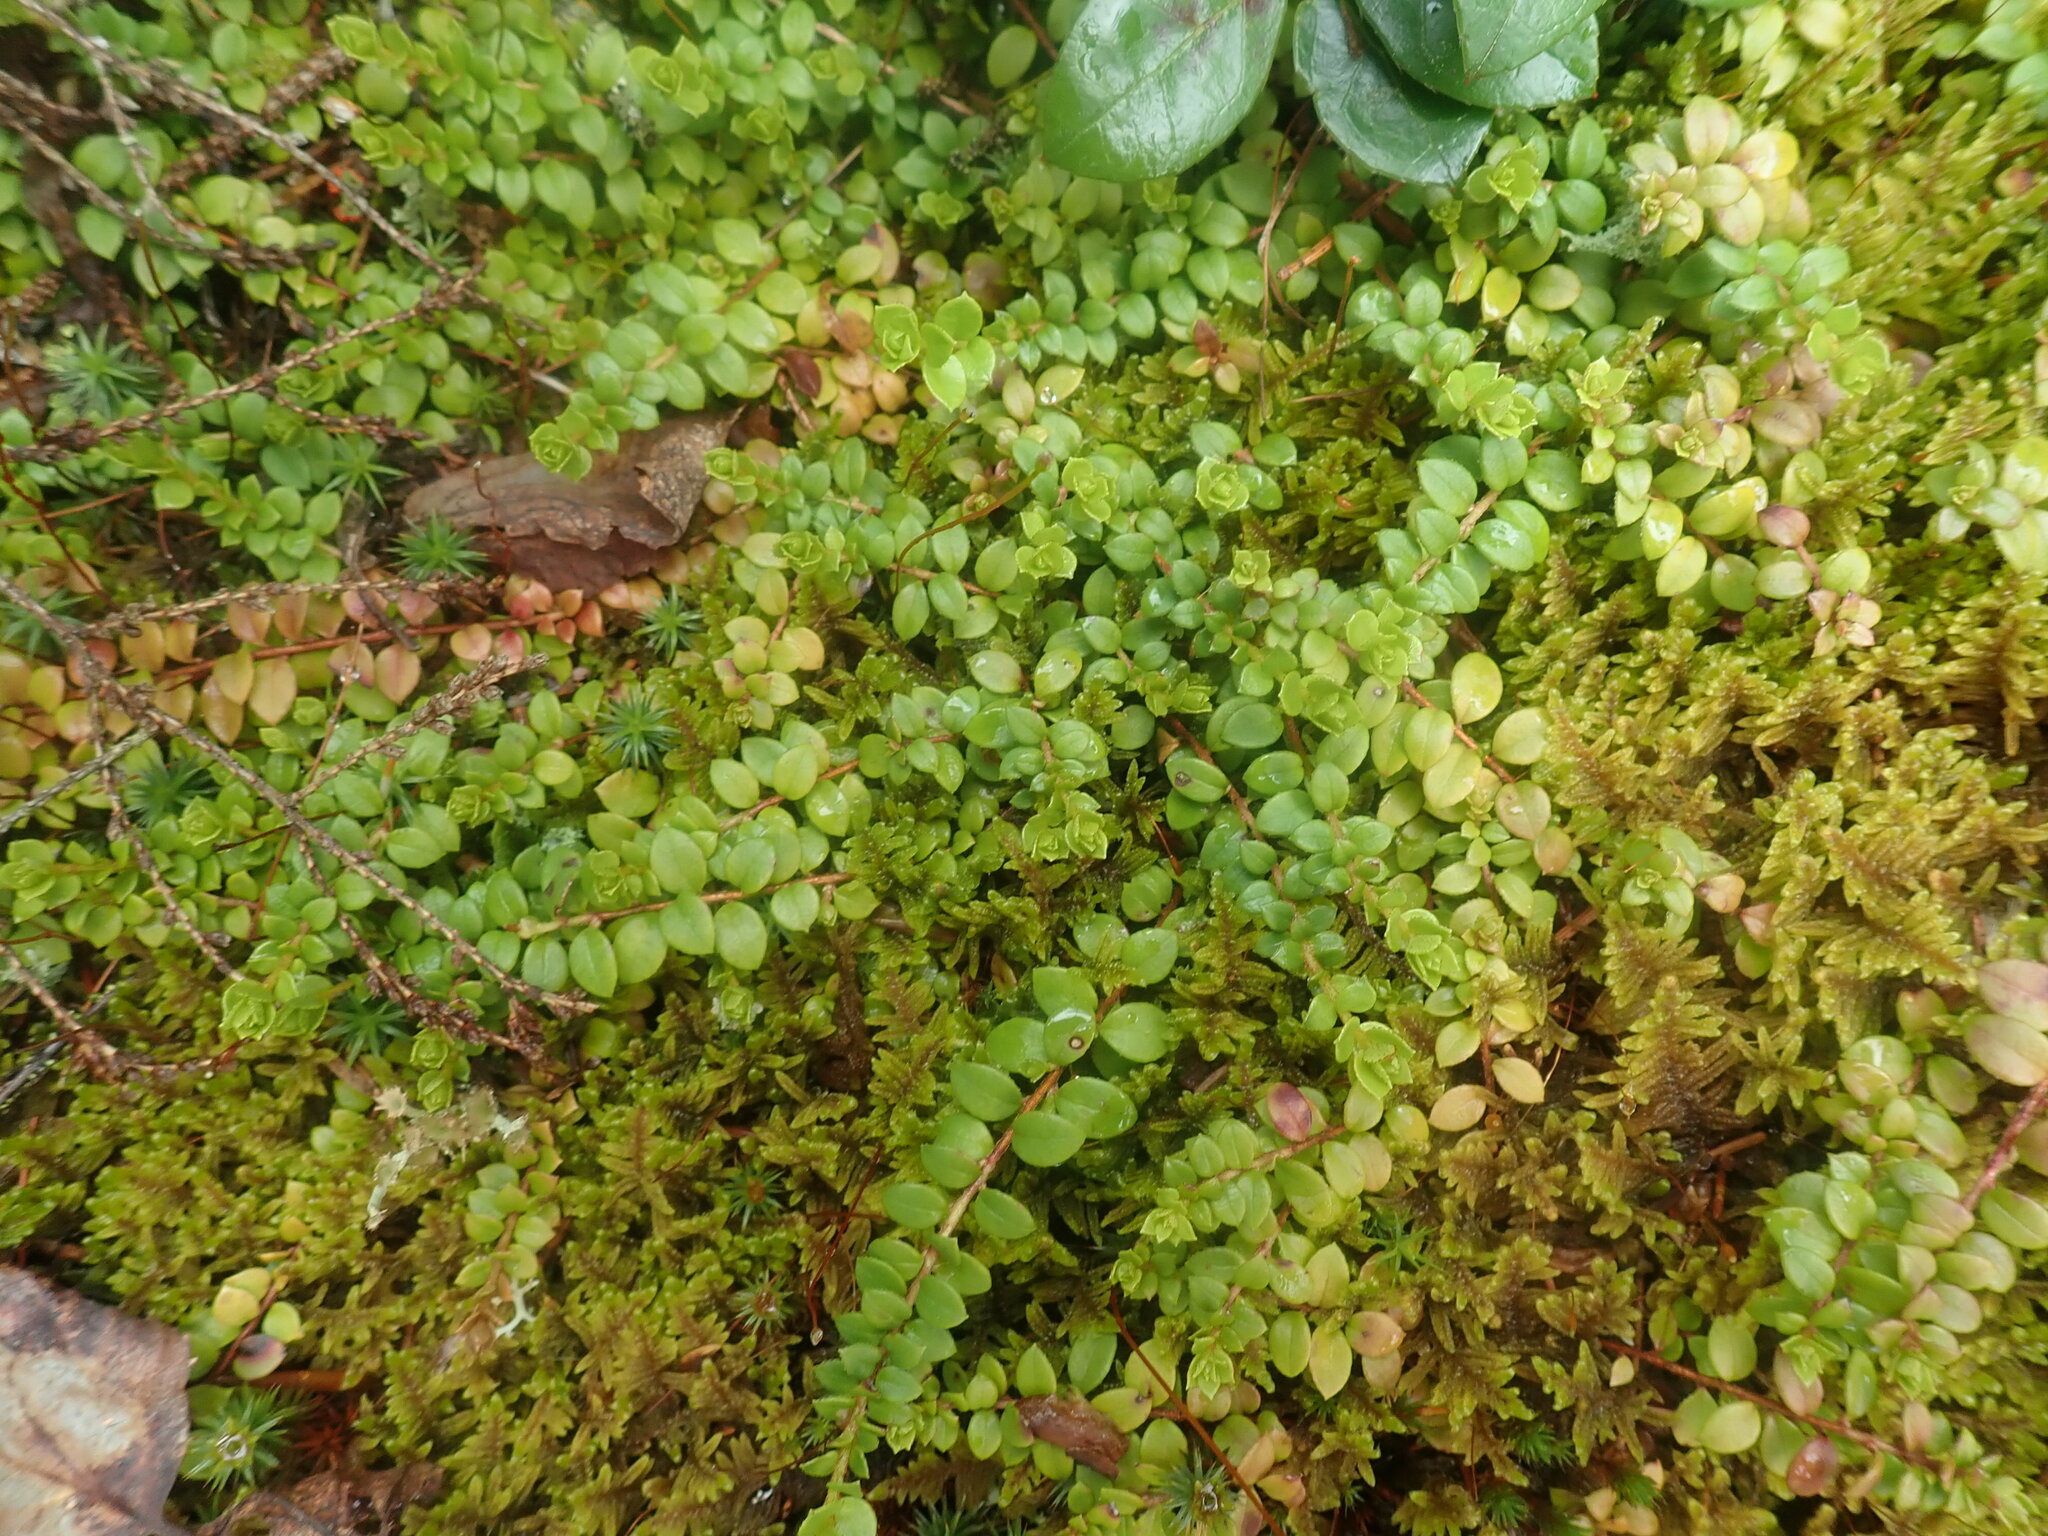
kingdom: Plantae
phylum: Tracheophyta
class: Magnoliopsida
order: Ericales
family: Ericaceae
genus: Gaultheria
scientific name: Gaultheria hispidula
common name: Cancer wintergreen
